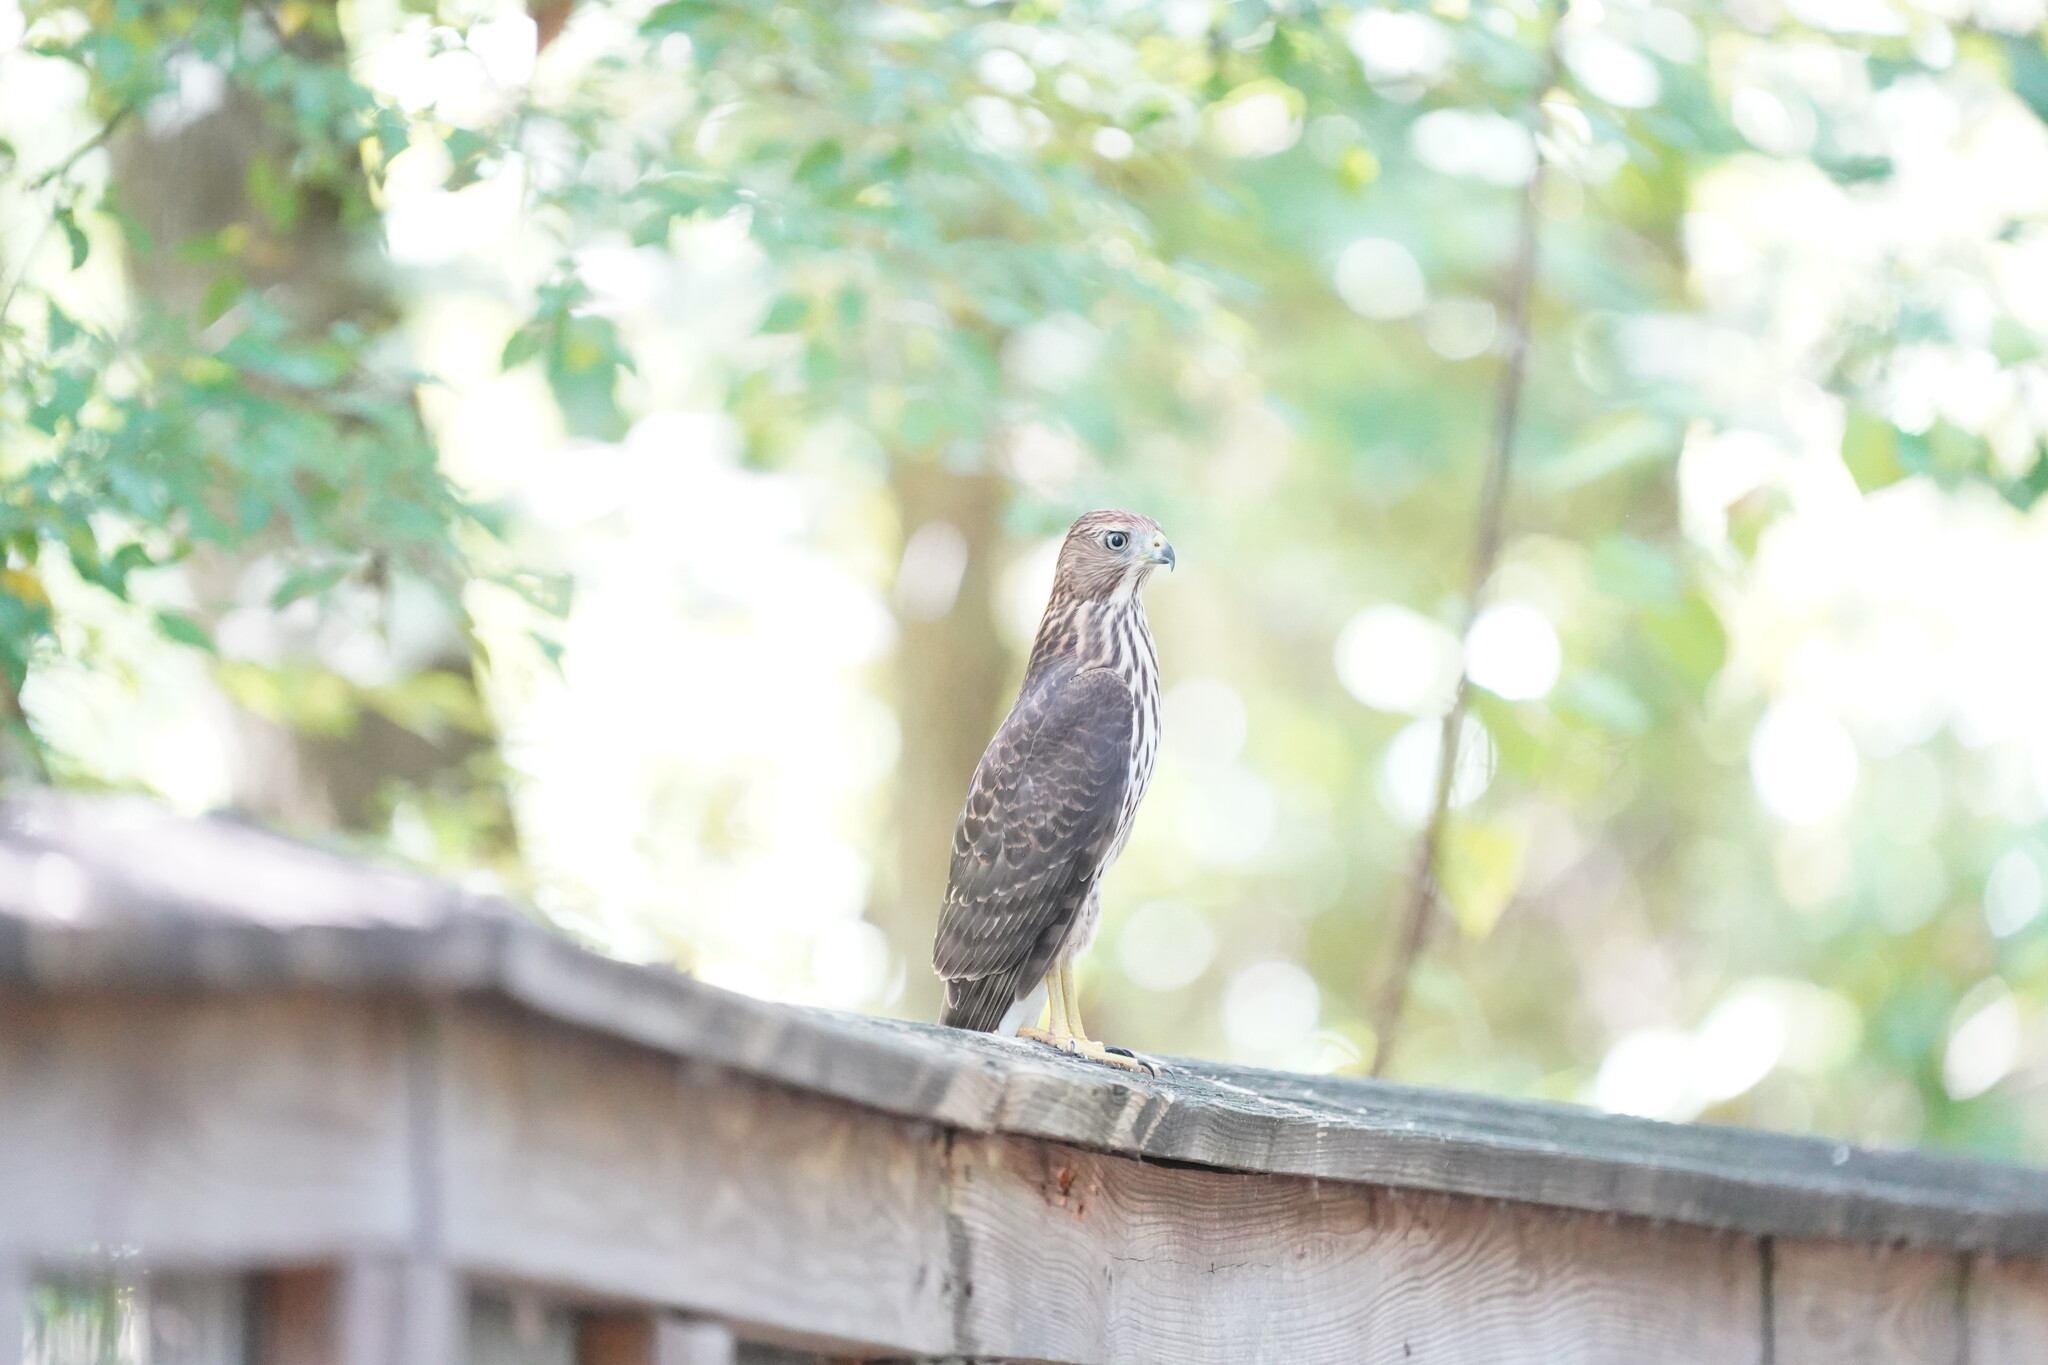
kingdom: Animalia
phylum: Chordata
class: Aves
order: Accipitriformes
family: Accipitridae
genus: Accipiter
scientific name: Accipiter cooperii
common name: Cooper's hawk
